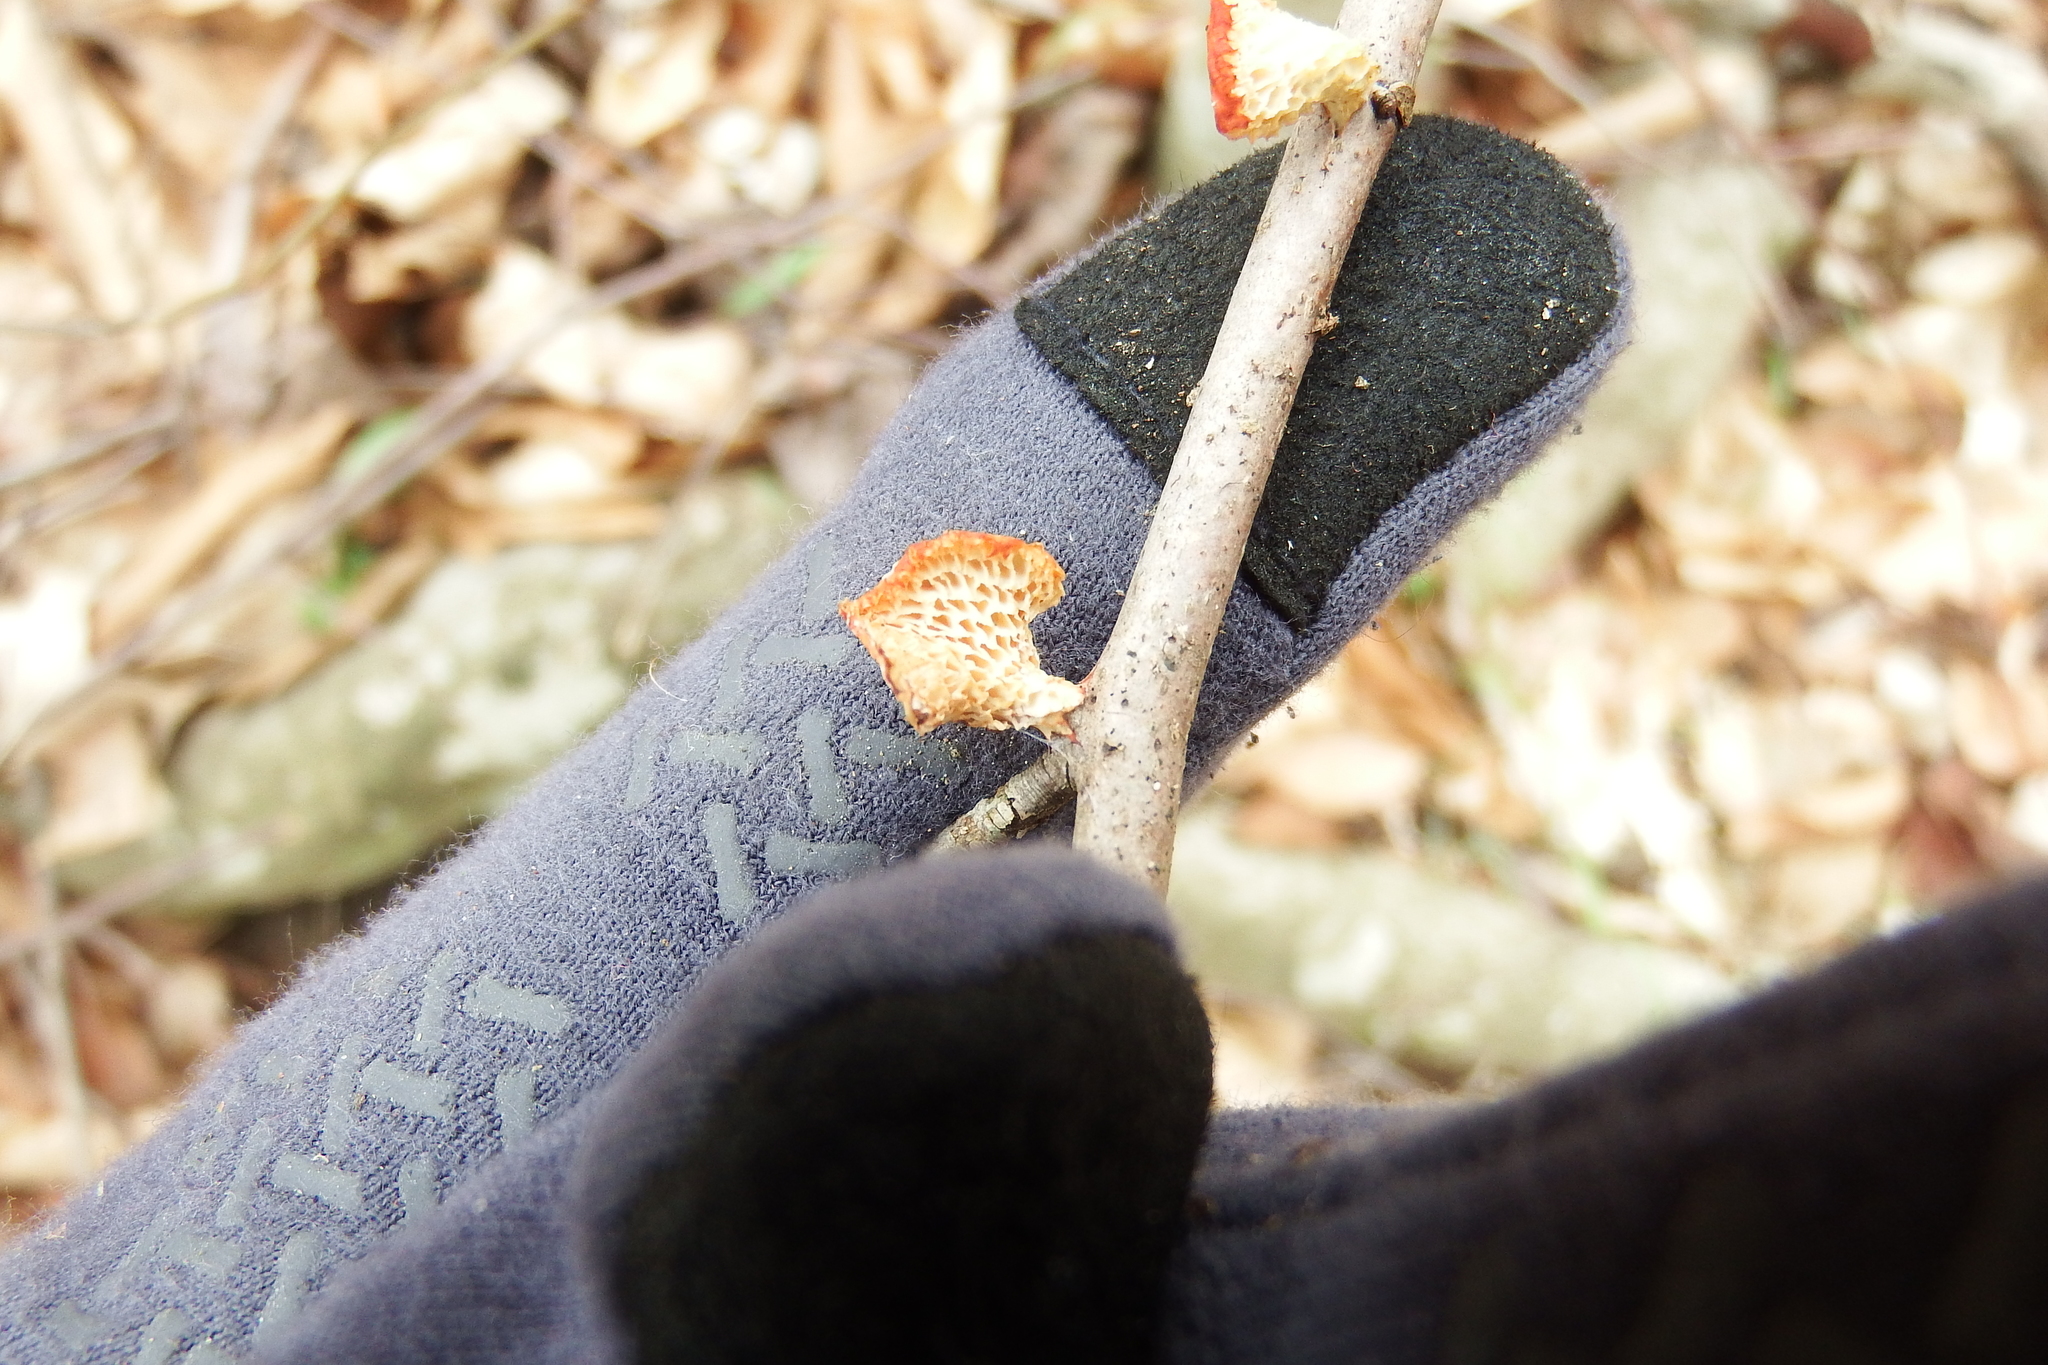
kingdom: Fungi
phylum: Basidiomycota
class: Agaricomycetes
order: Polyporales
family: Polyporaceae
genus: Neofavolus
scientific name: Neofavolus alveolaris
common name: Hexagonal-pored polypore
